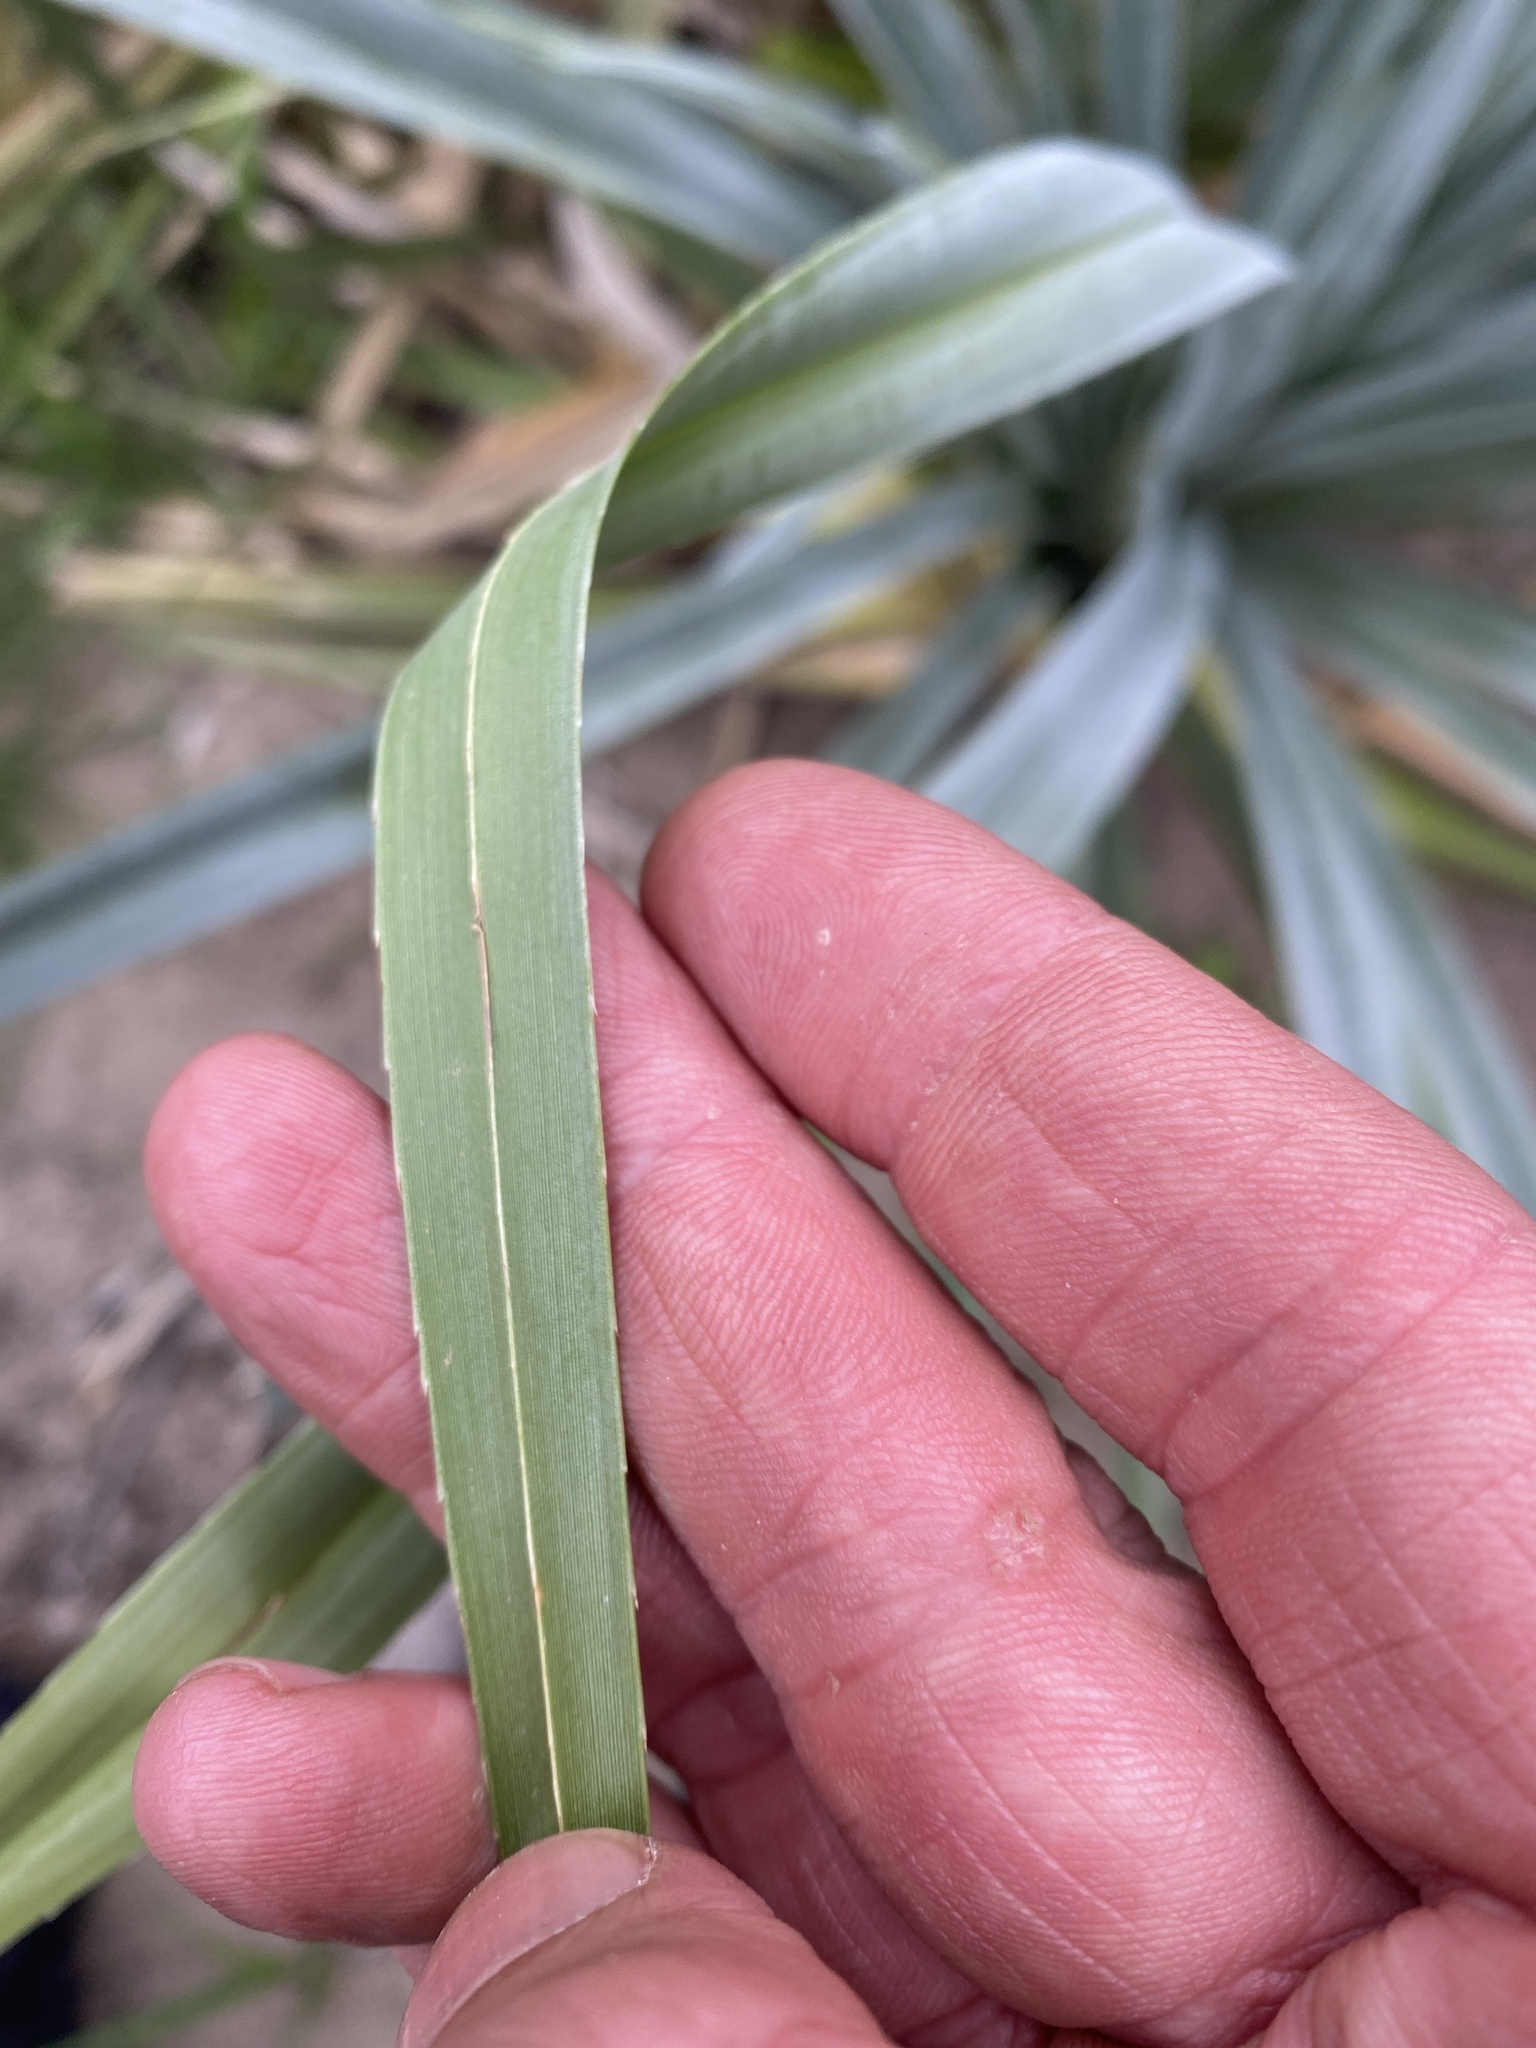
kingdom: Plantae
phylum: Tracheophyta
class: Liliopsida
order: Poales
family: Thurniaceae
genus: Prionium
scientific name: Prionium serratum
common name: Palmiet
